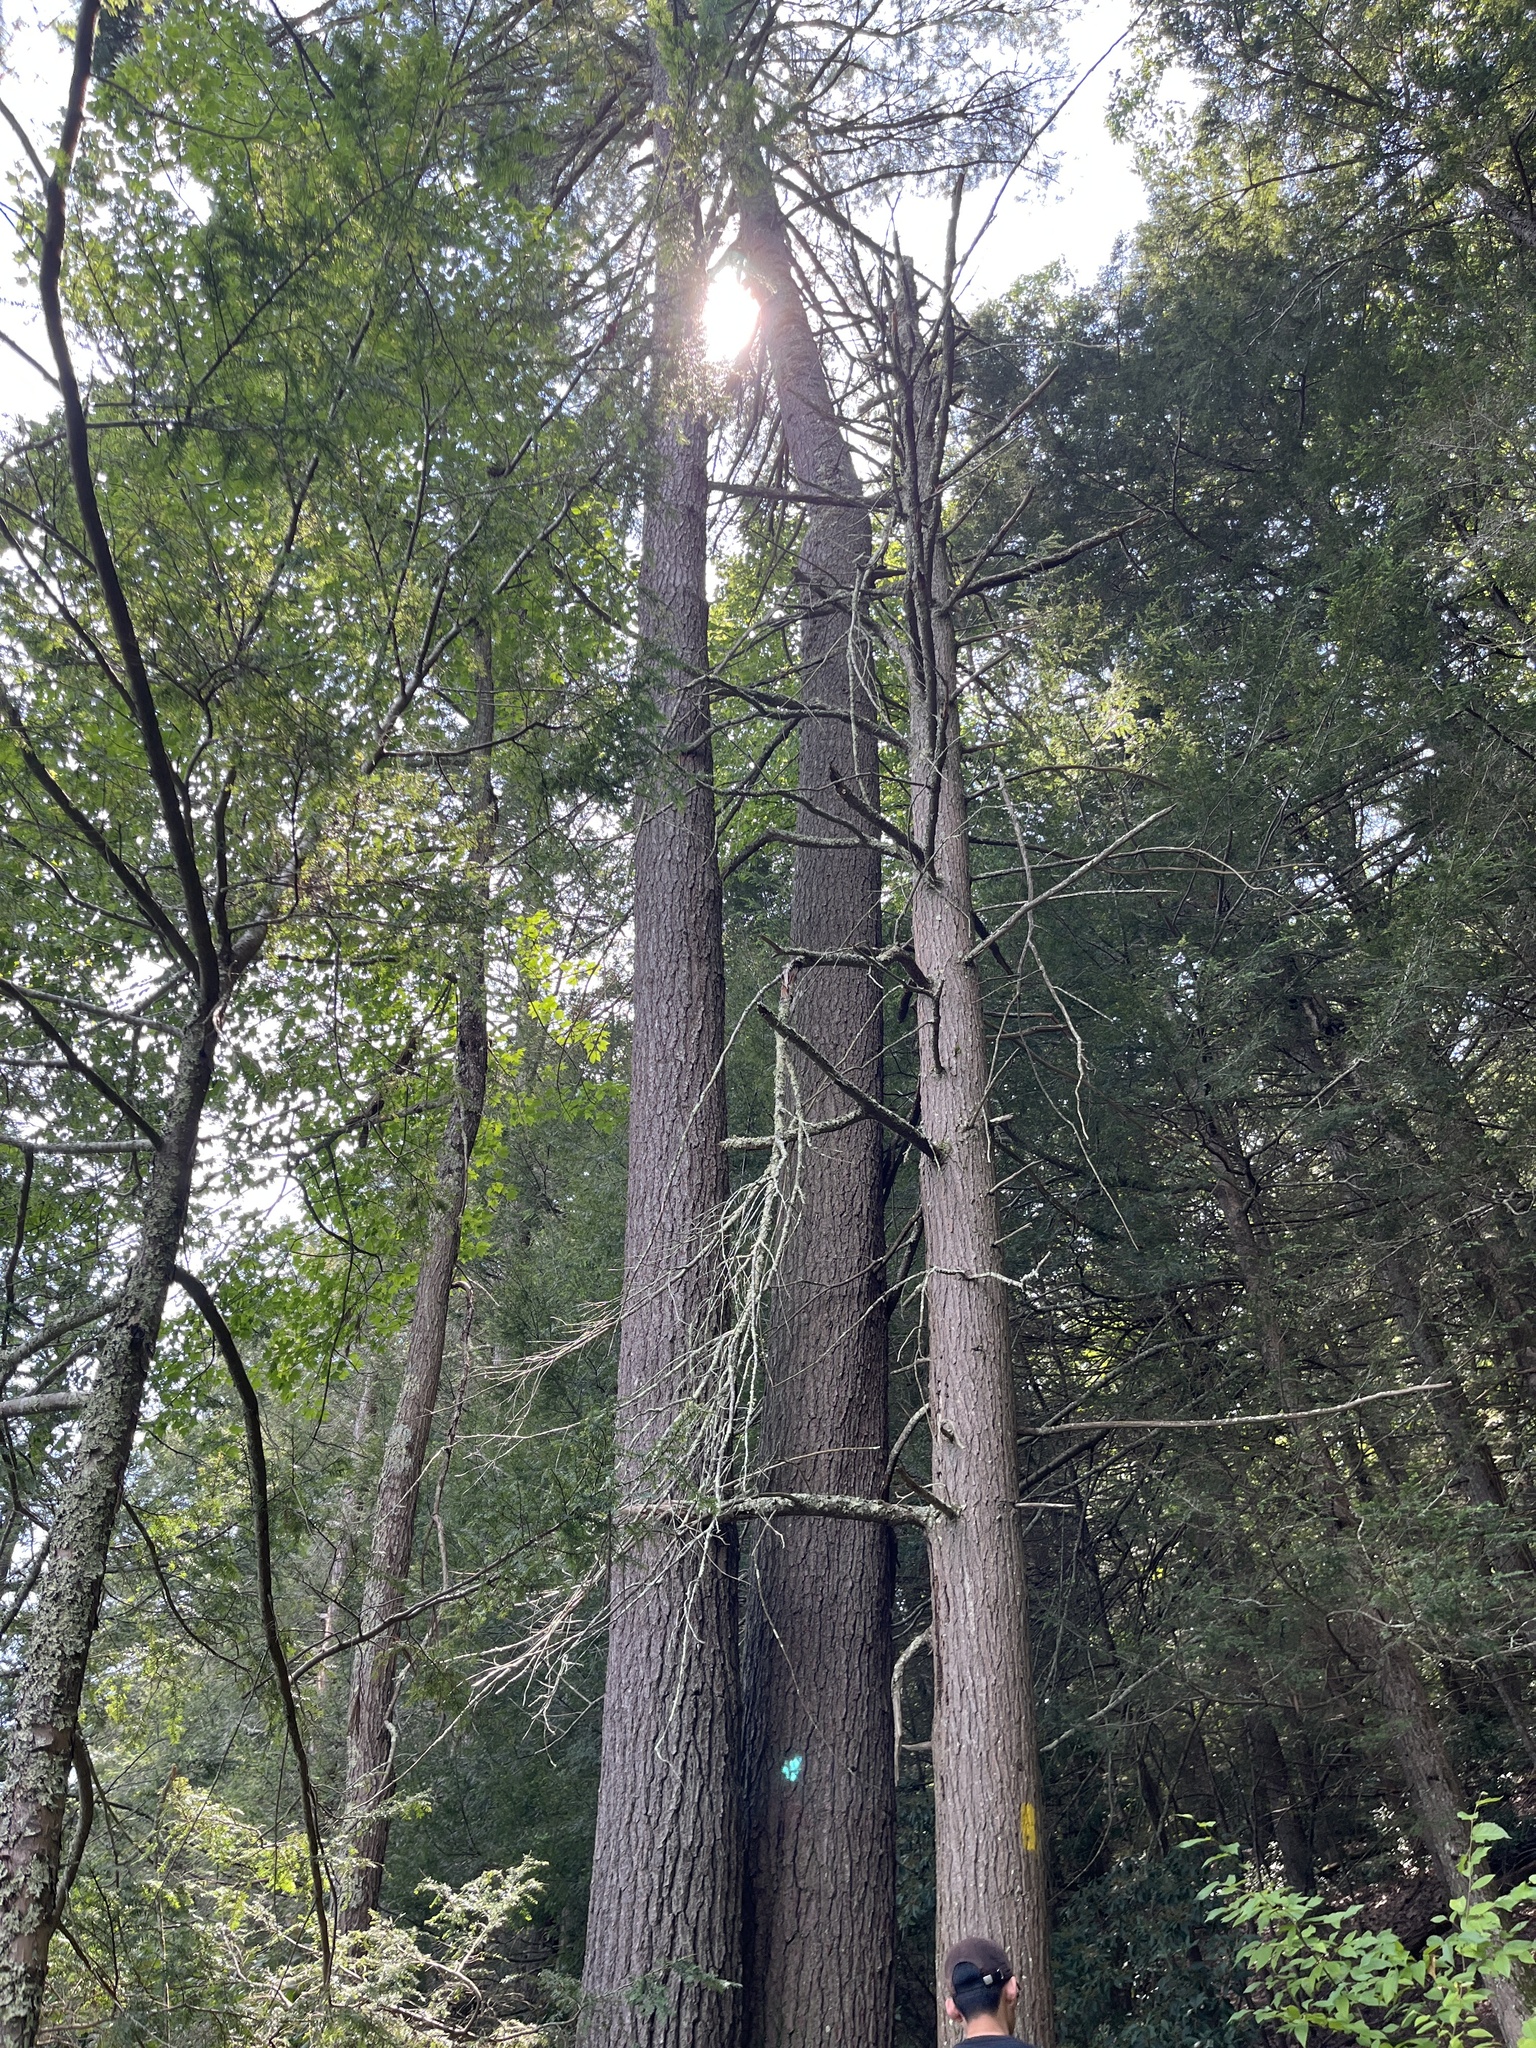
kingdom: Plantae
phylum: Tracheophyta
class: Pinopsida
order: Pinales
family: Pinaceae
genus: Tsuga
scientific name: Tsuga canadensis
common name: Eastern hemlock
